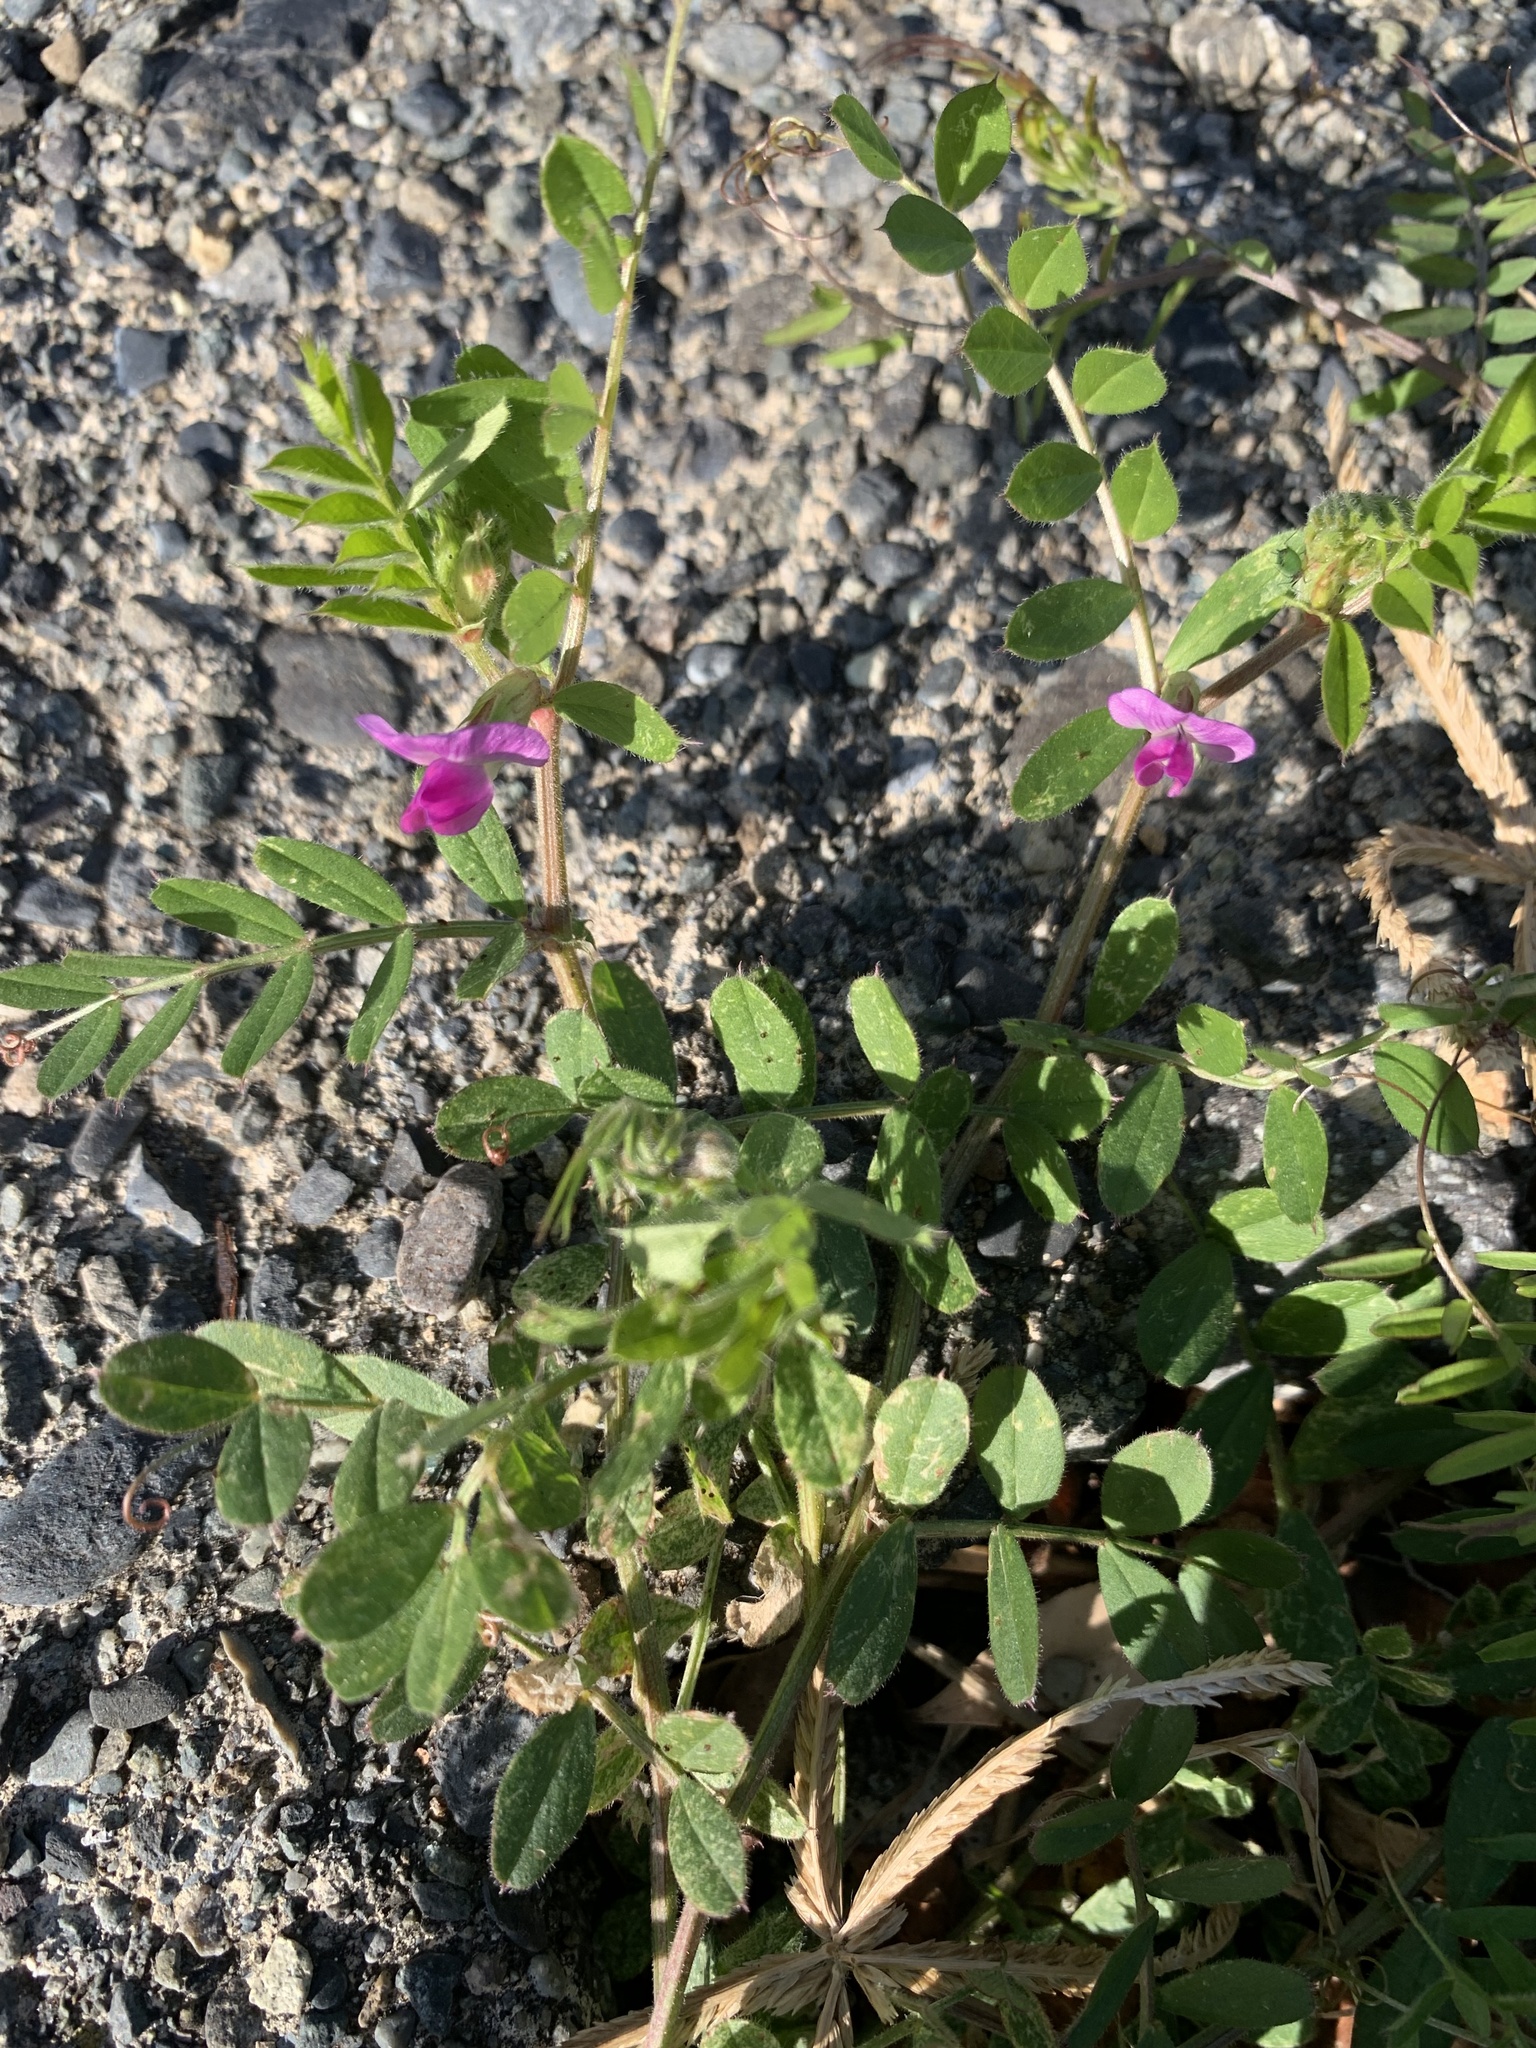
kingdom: Plantae
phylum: Tracheophyta
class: Magnoliopsida
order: Fabales
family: Fabaceae
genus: Vicia
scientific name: Vicia sativa
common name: Garden vetch
